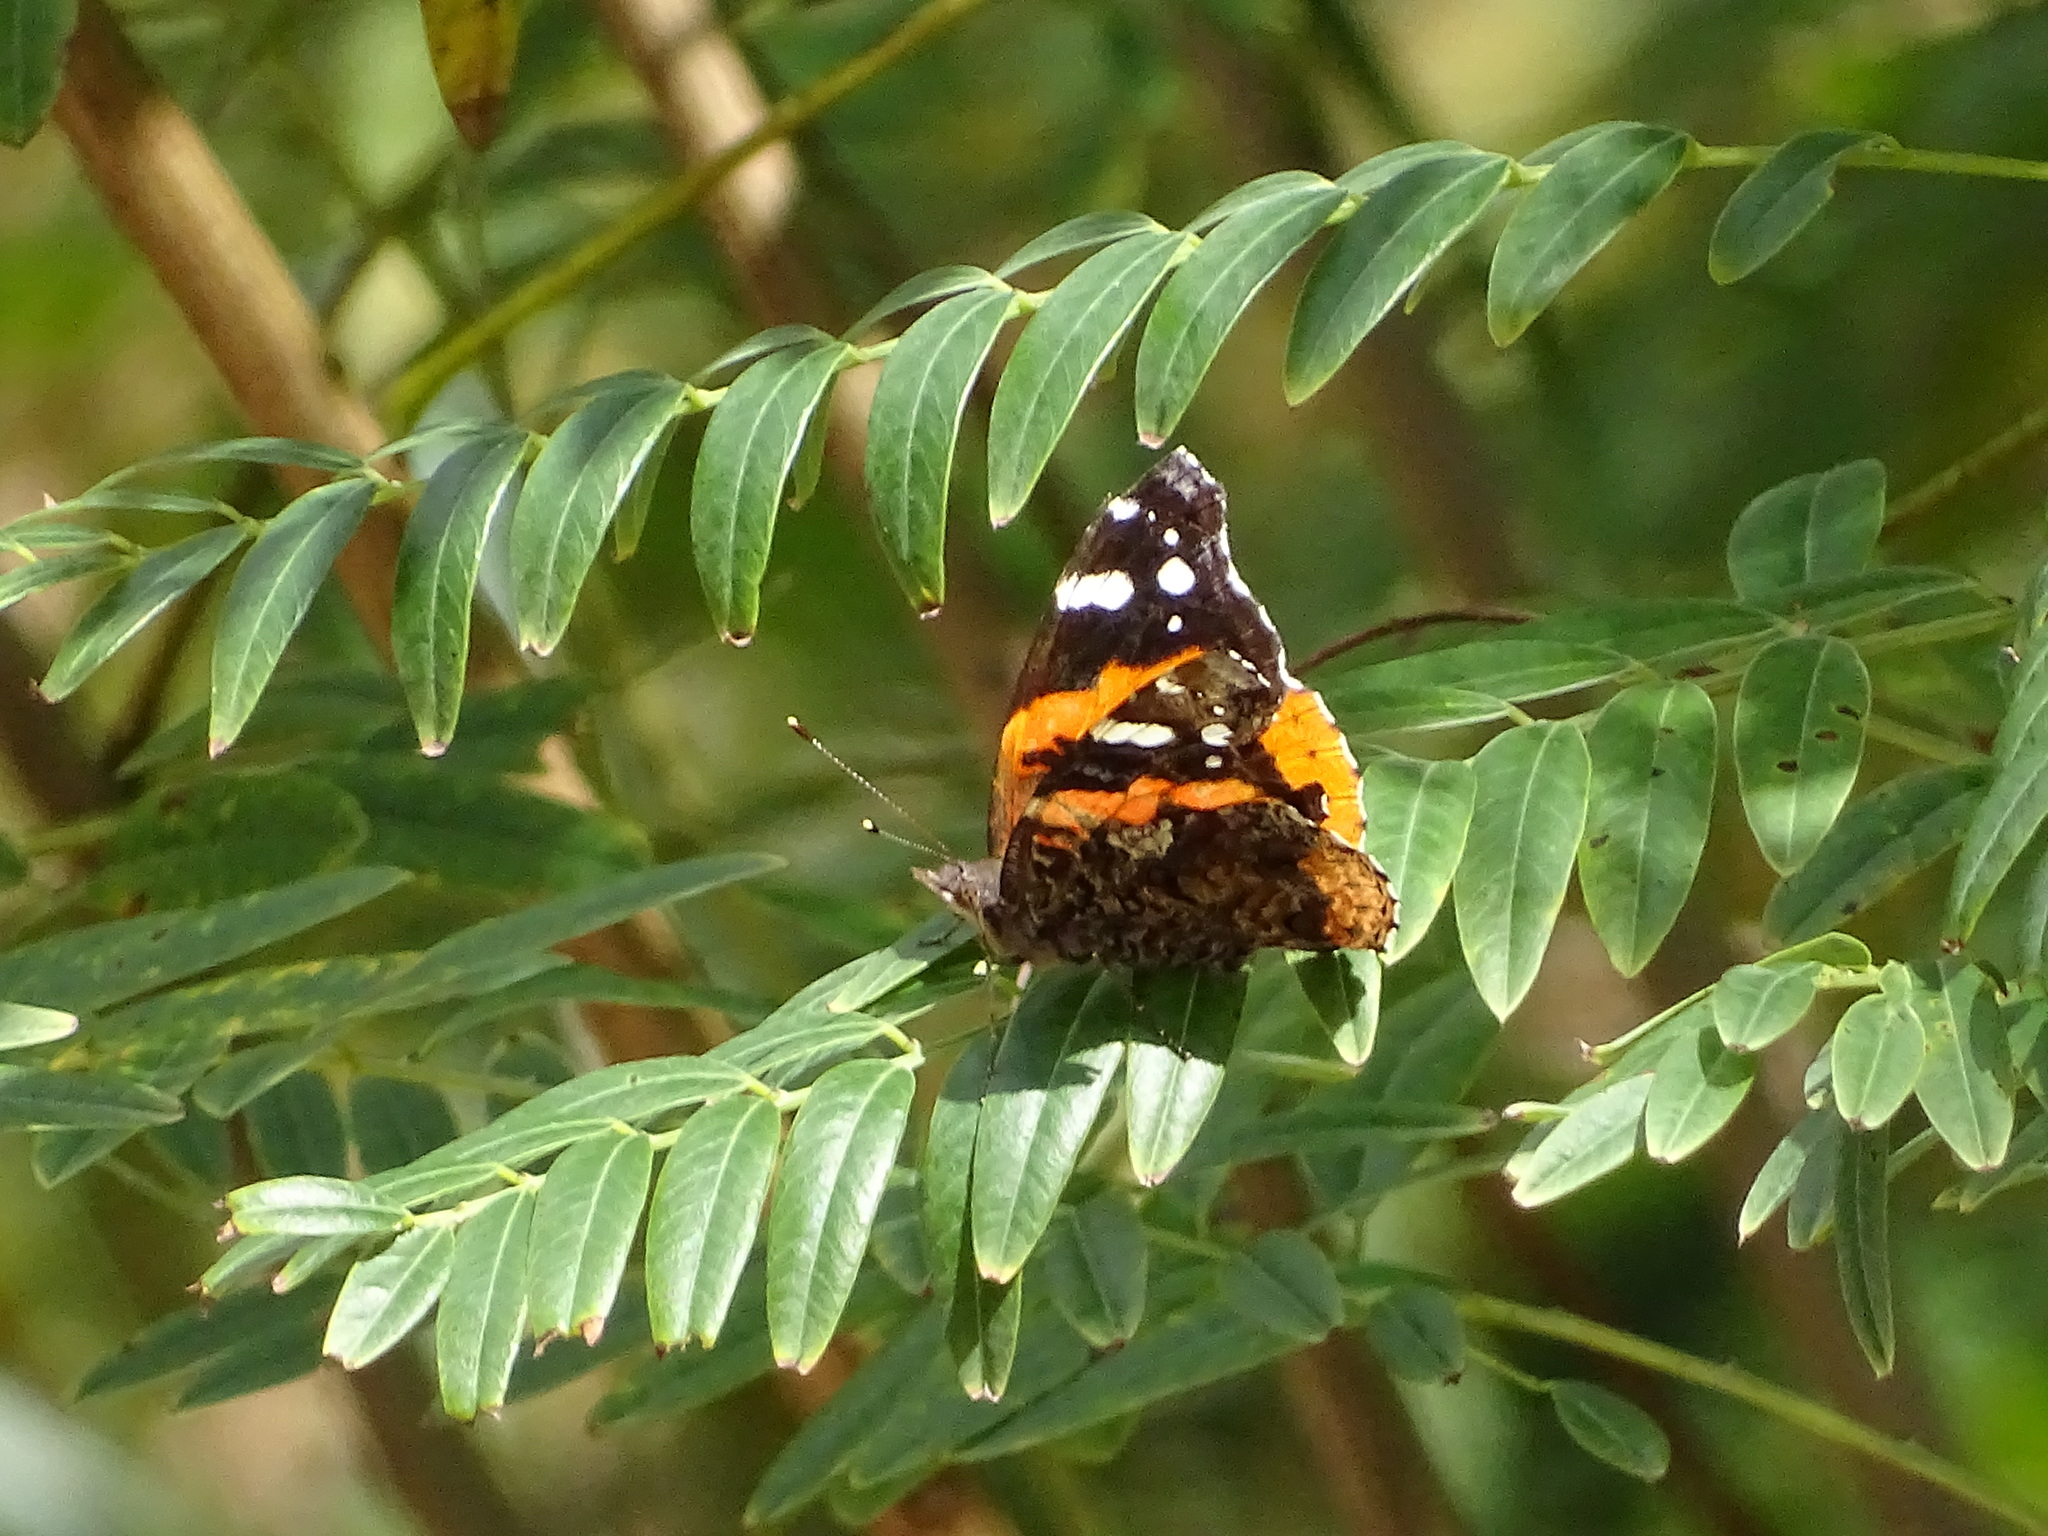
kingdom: Animalia
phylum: Arthropoda
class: Insecta
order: Lepidoptera
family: Nymphalidae
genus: Vanessa
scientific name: Vanessa atalanta
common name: Red admiral
